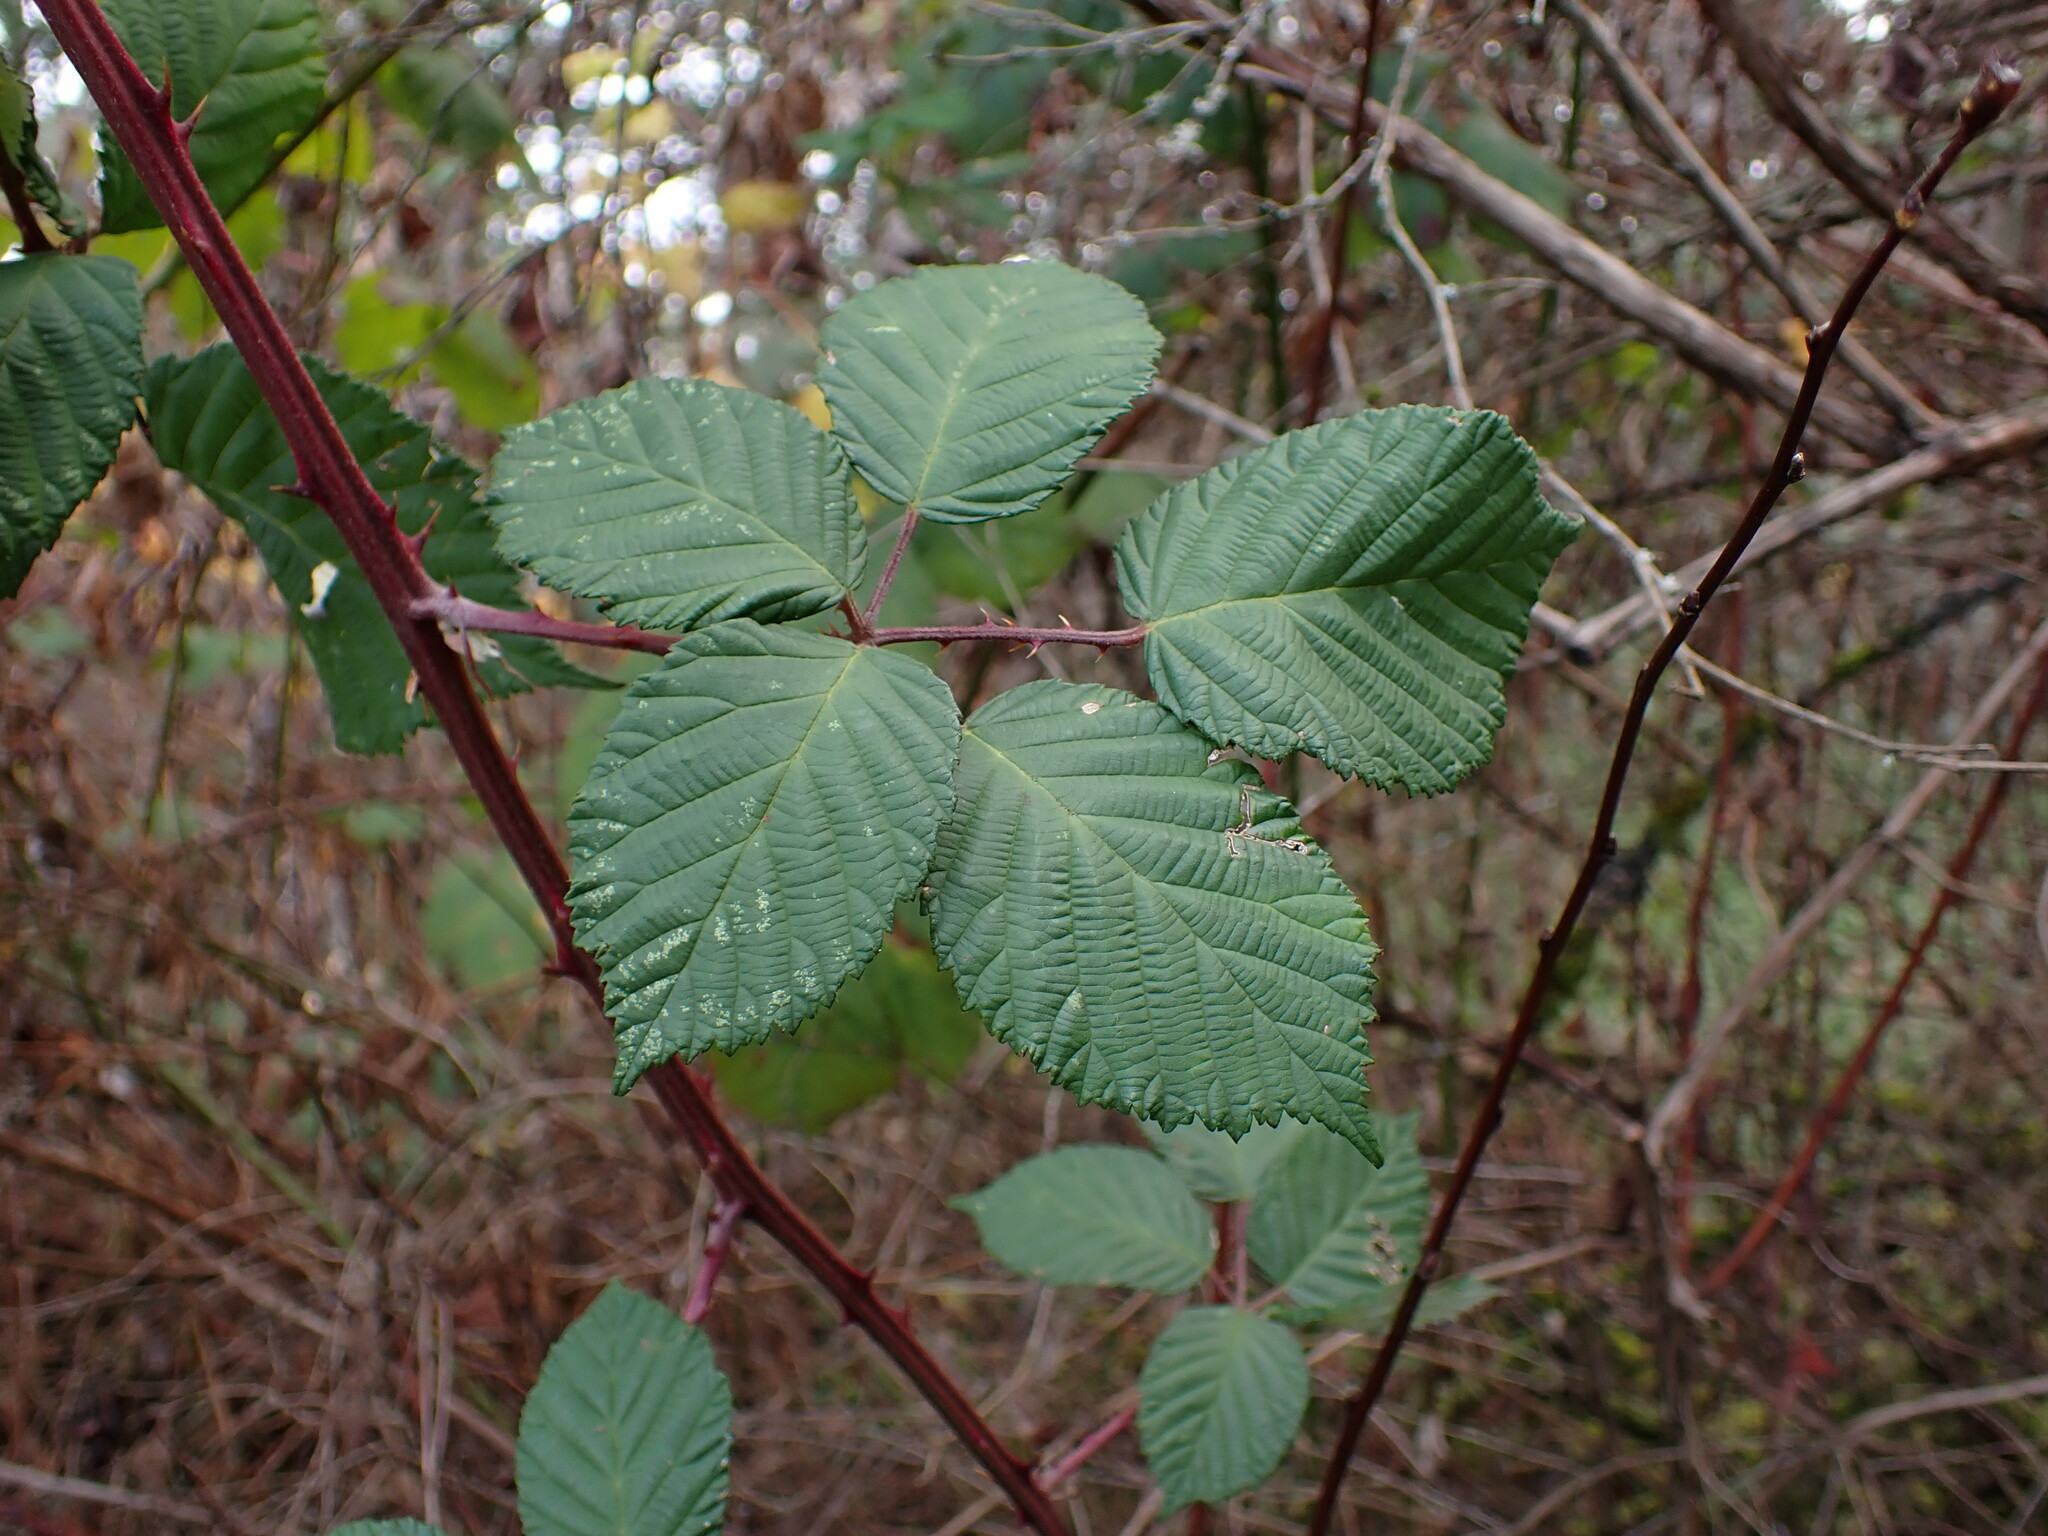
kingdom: Plantae
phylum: Tracheophyta
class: Magnoliopsida
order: Rosales
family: Rosaceae
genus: Rubus
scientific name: Rubus bifrons
